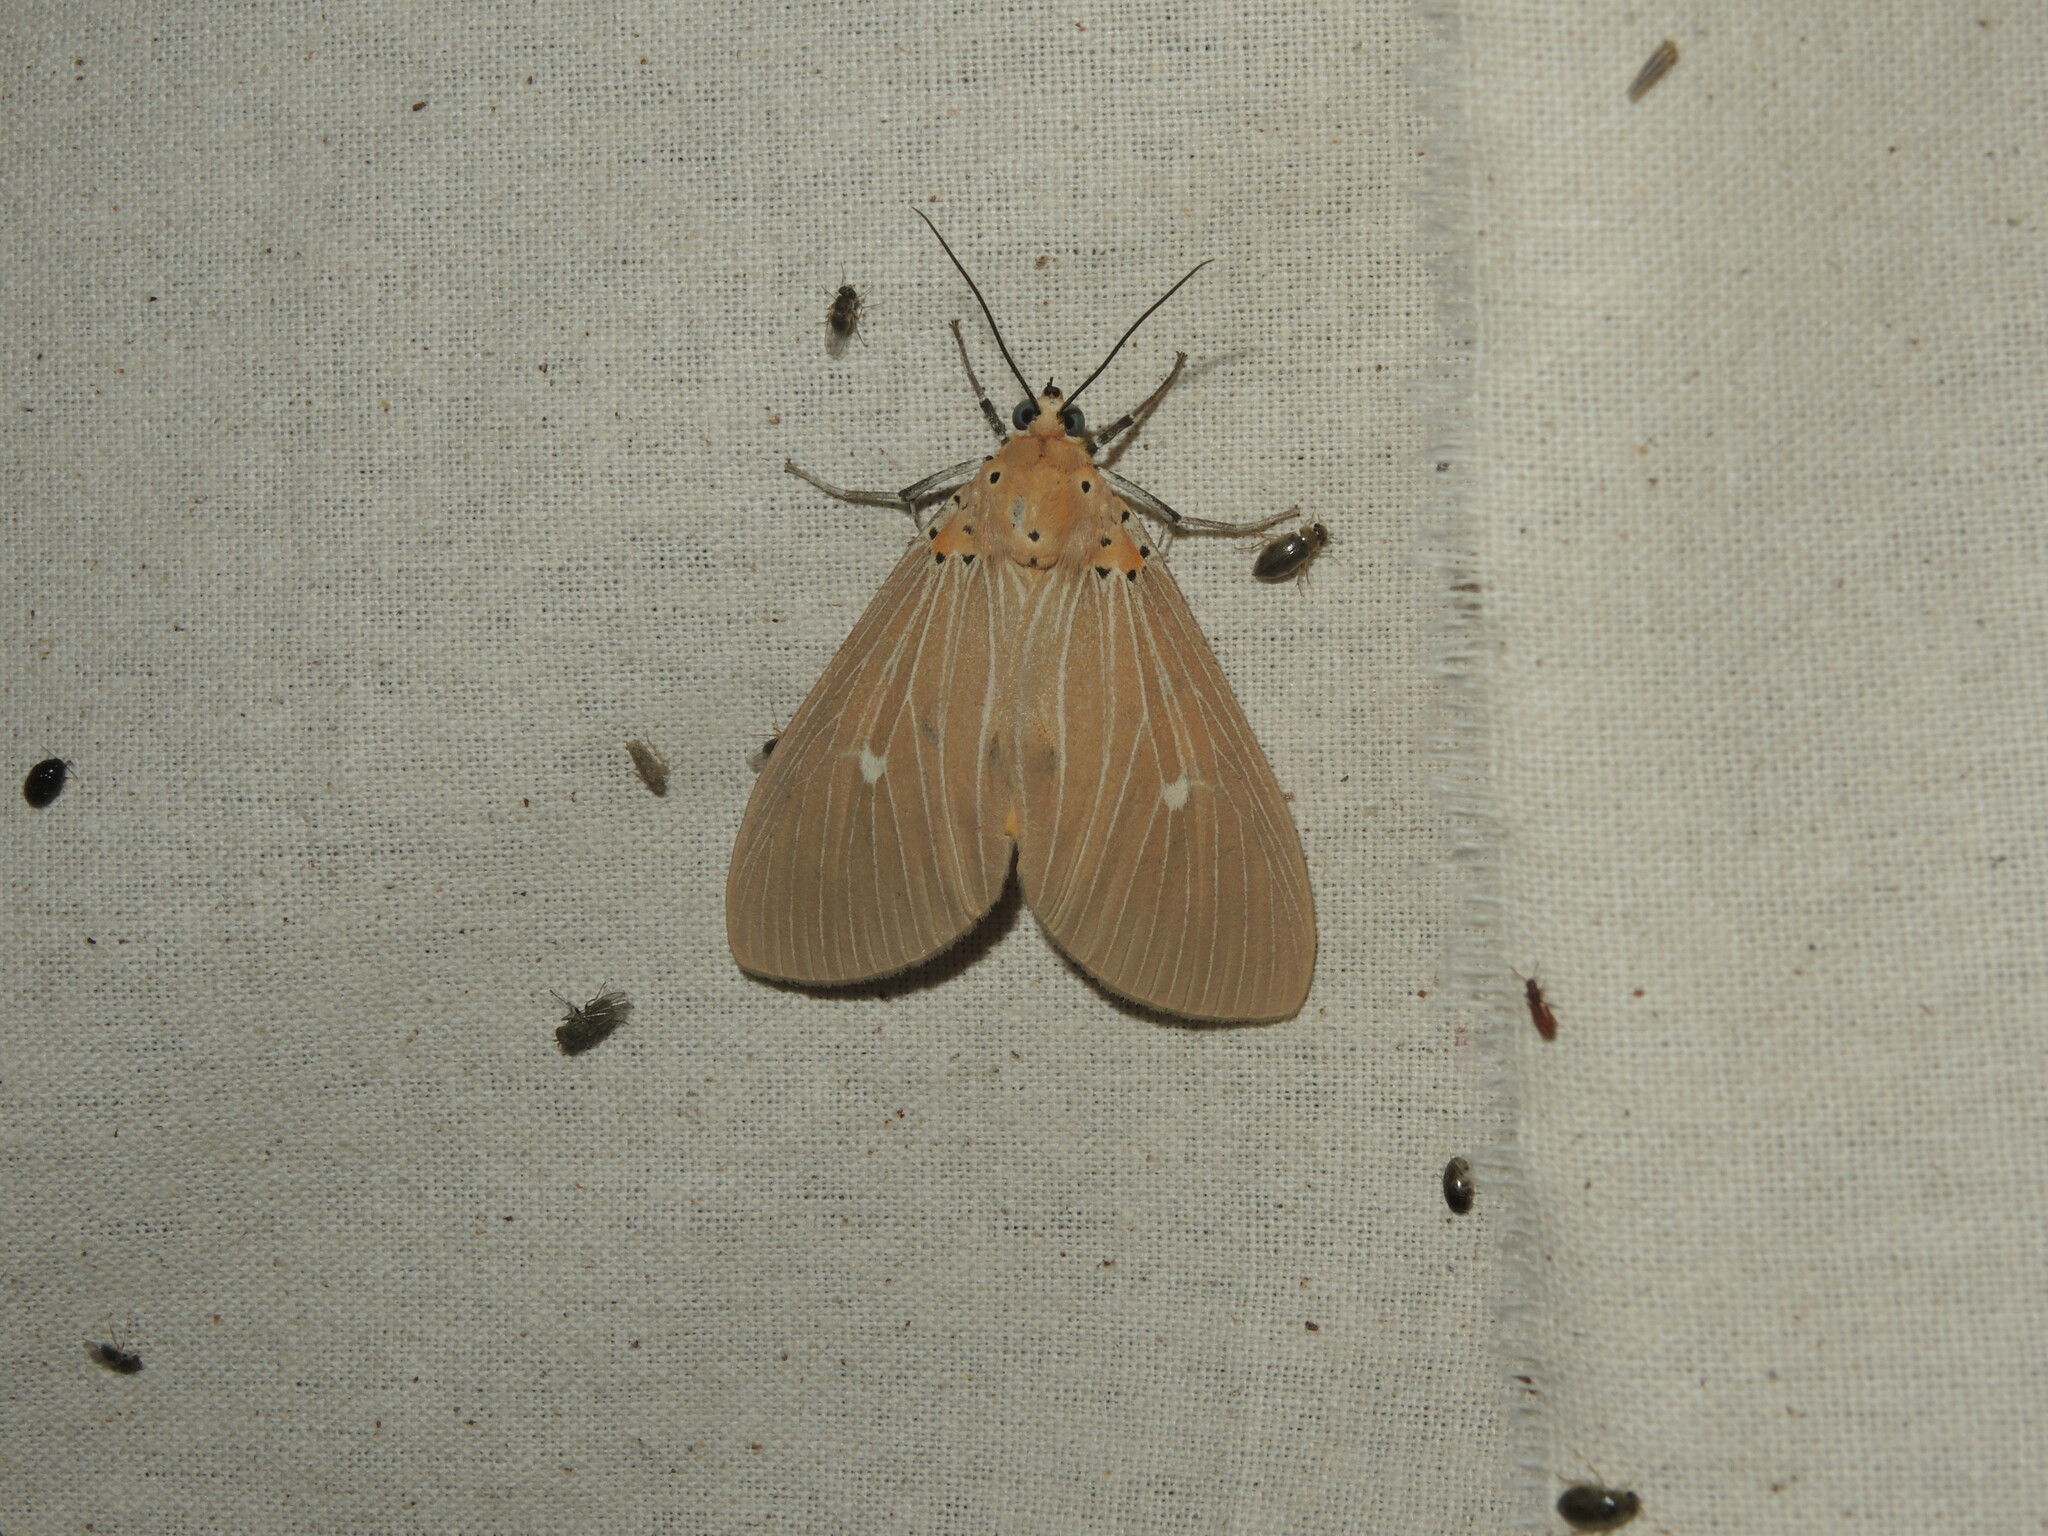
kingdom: Animalia
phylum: Arthropoda
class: Insecta
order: Lepidoptera
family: Erebidae
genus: Asota
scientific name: Asota caricae
